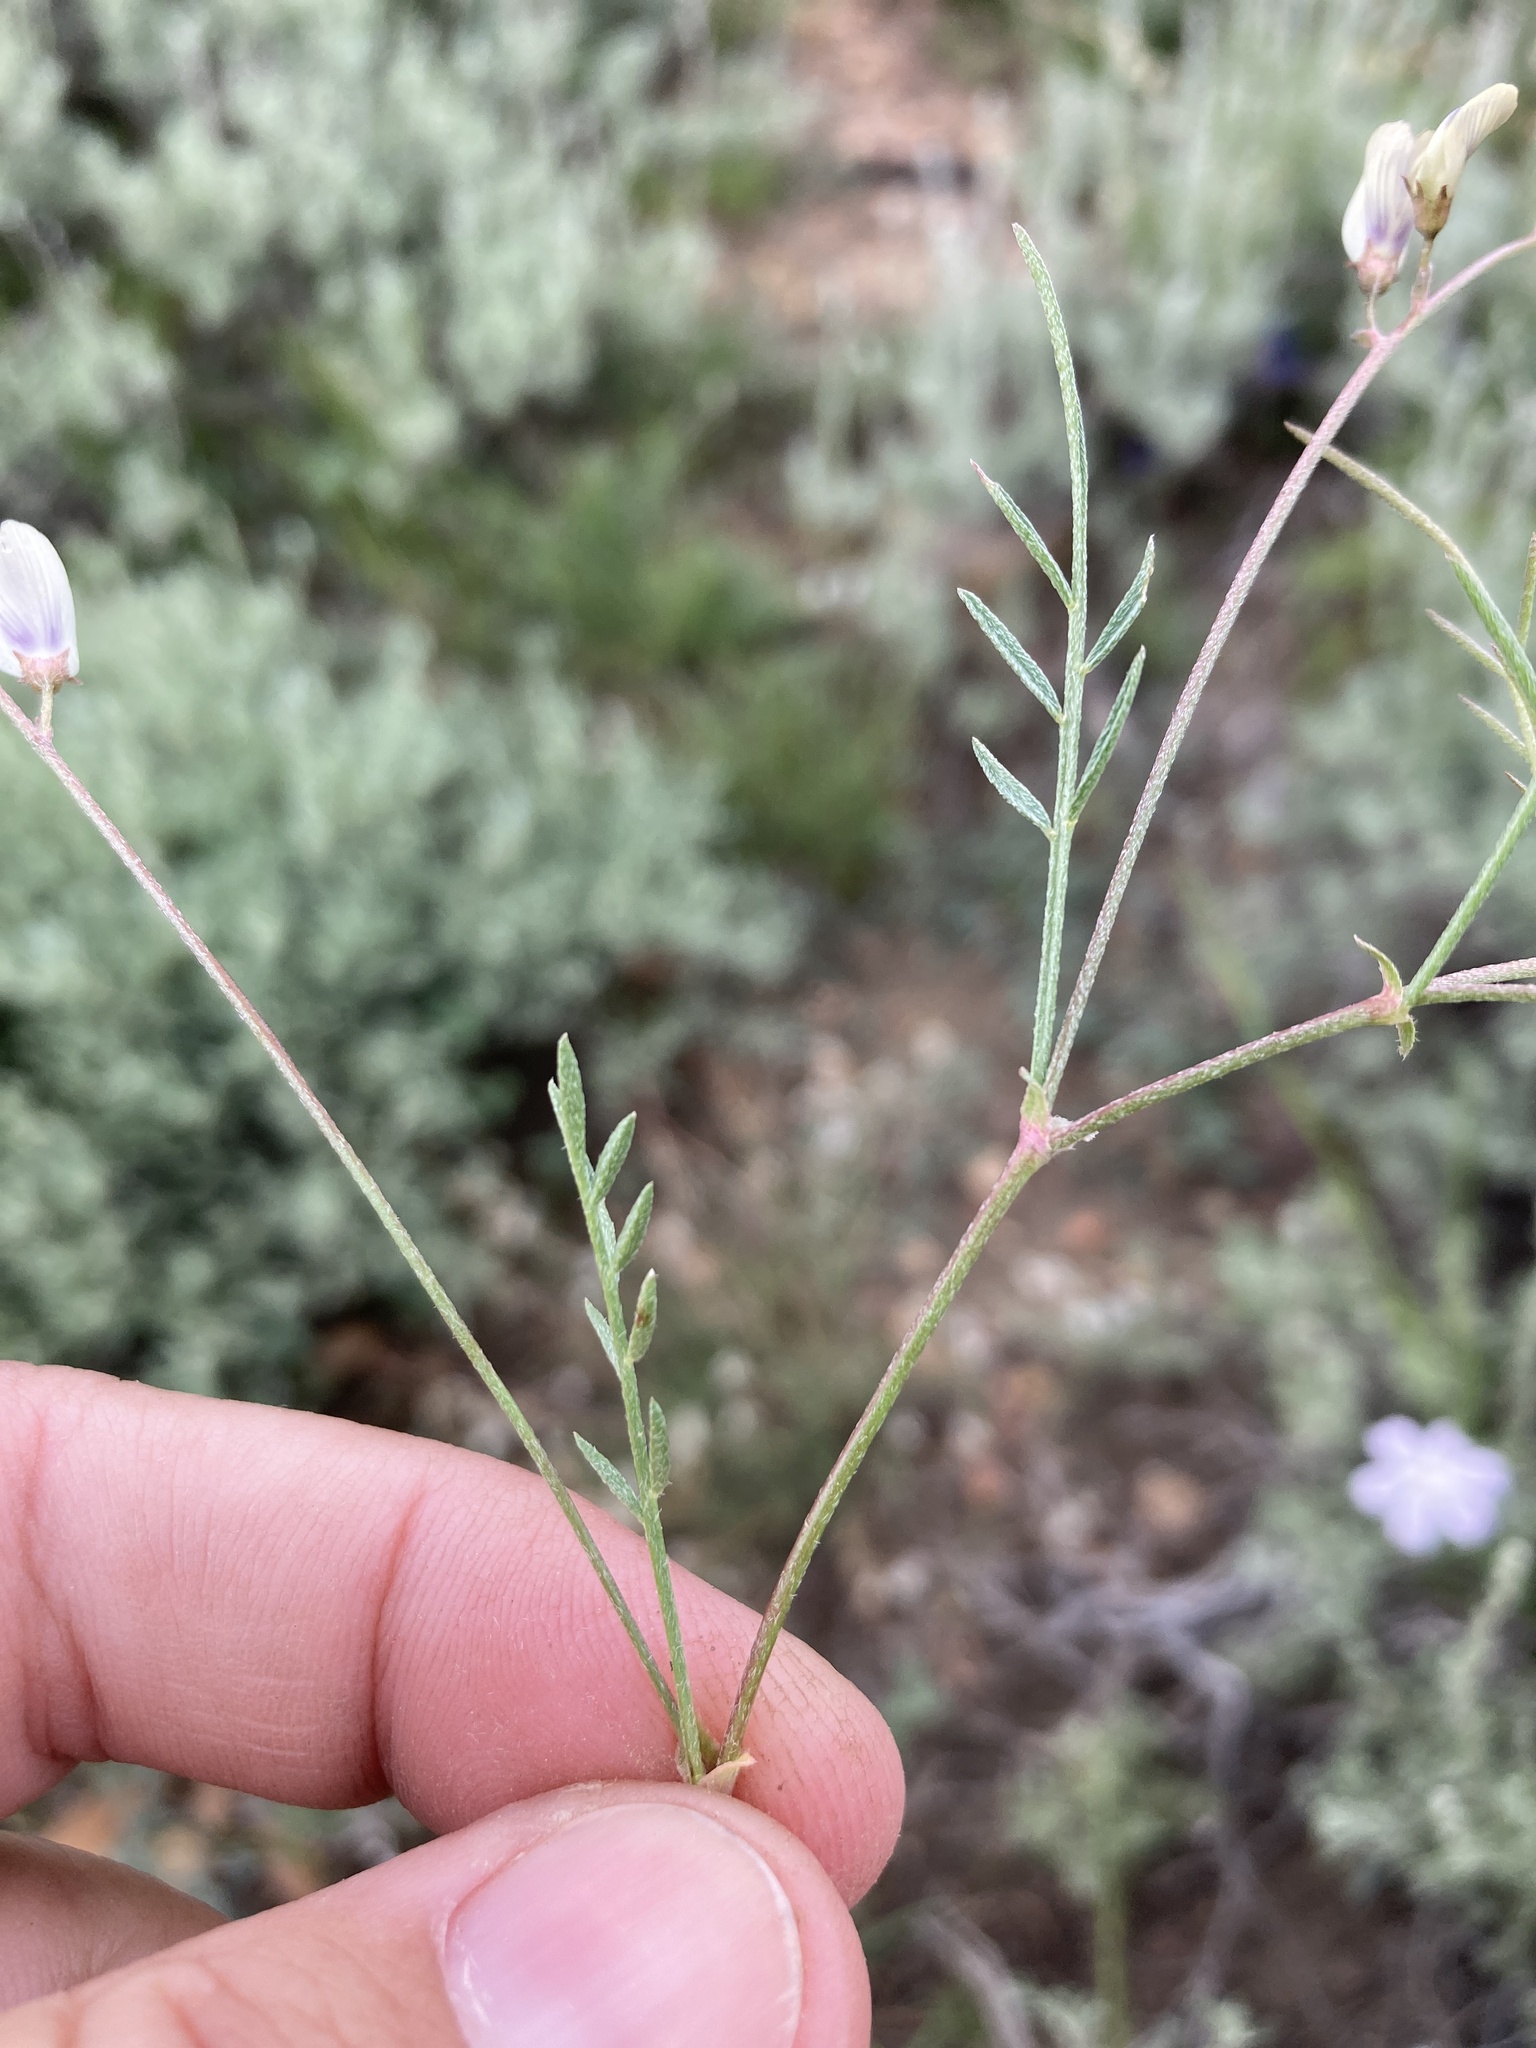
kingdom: Plantae
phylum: Tracheophyta
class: Magnoliopsida
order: Fabales
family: Fabaceae
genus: Astragalus
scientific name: Astragalus miser
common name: Timber milkvetch
